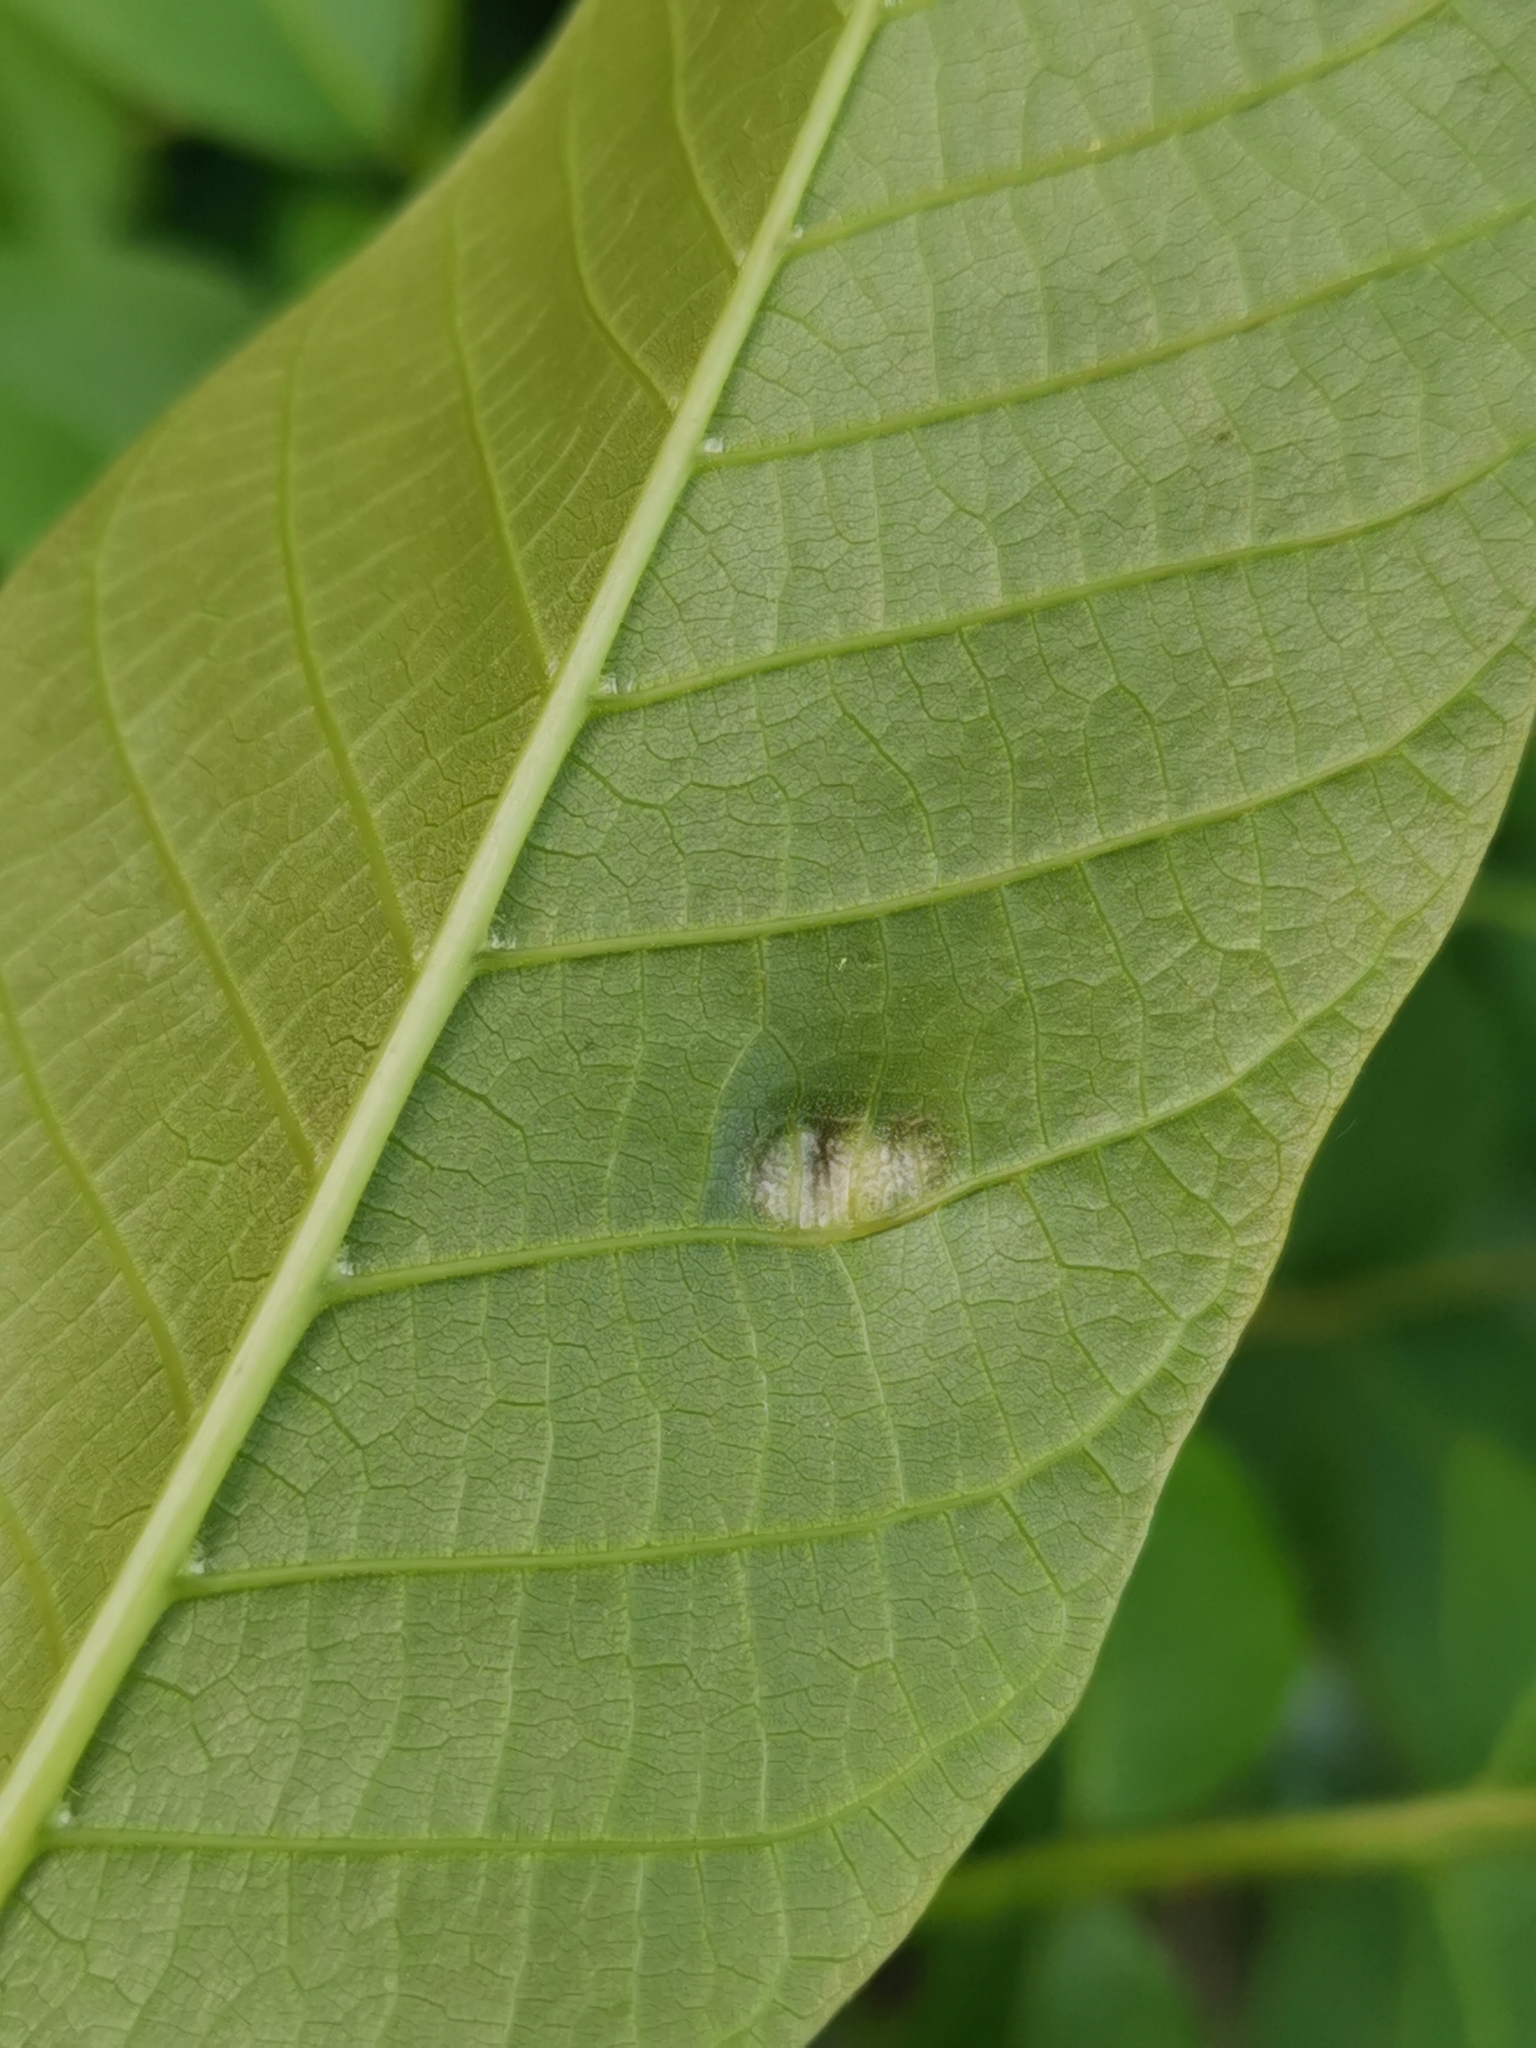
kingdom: Animalia
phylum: Arthropoda
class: Arachnida
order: Trombidiformes
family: Eriophyidae
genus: Aceria
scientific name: Aceria erinea
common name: Persian walnut erineum mite
